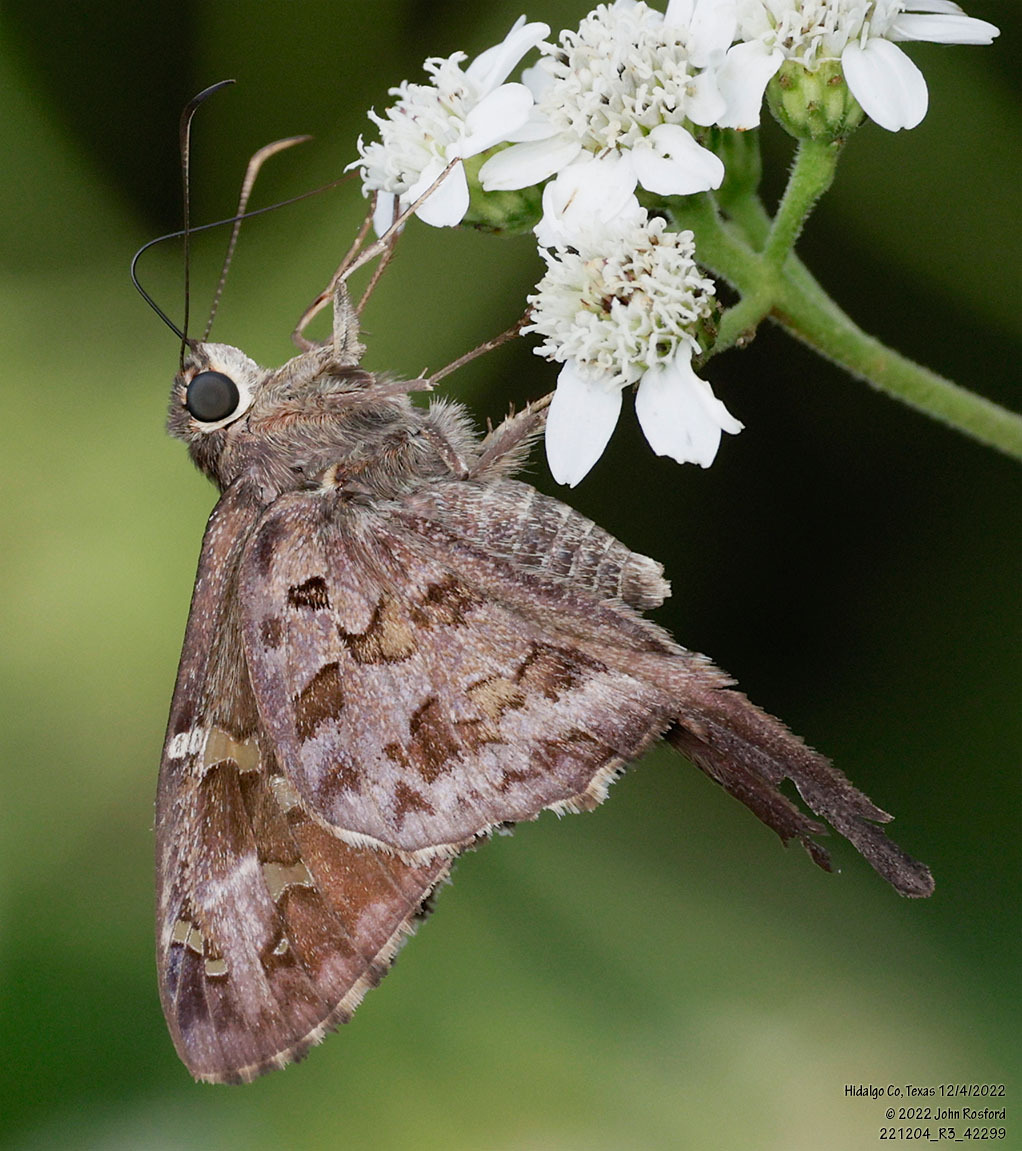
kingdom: Animalia
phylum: Arthropoda
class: Insecta
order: Lepidoptera
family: Hesperiidae
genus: Thorybes
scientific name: Thorybes
